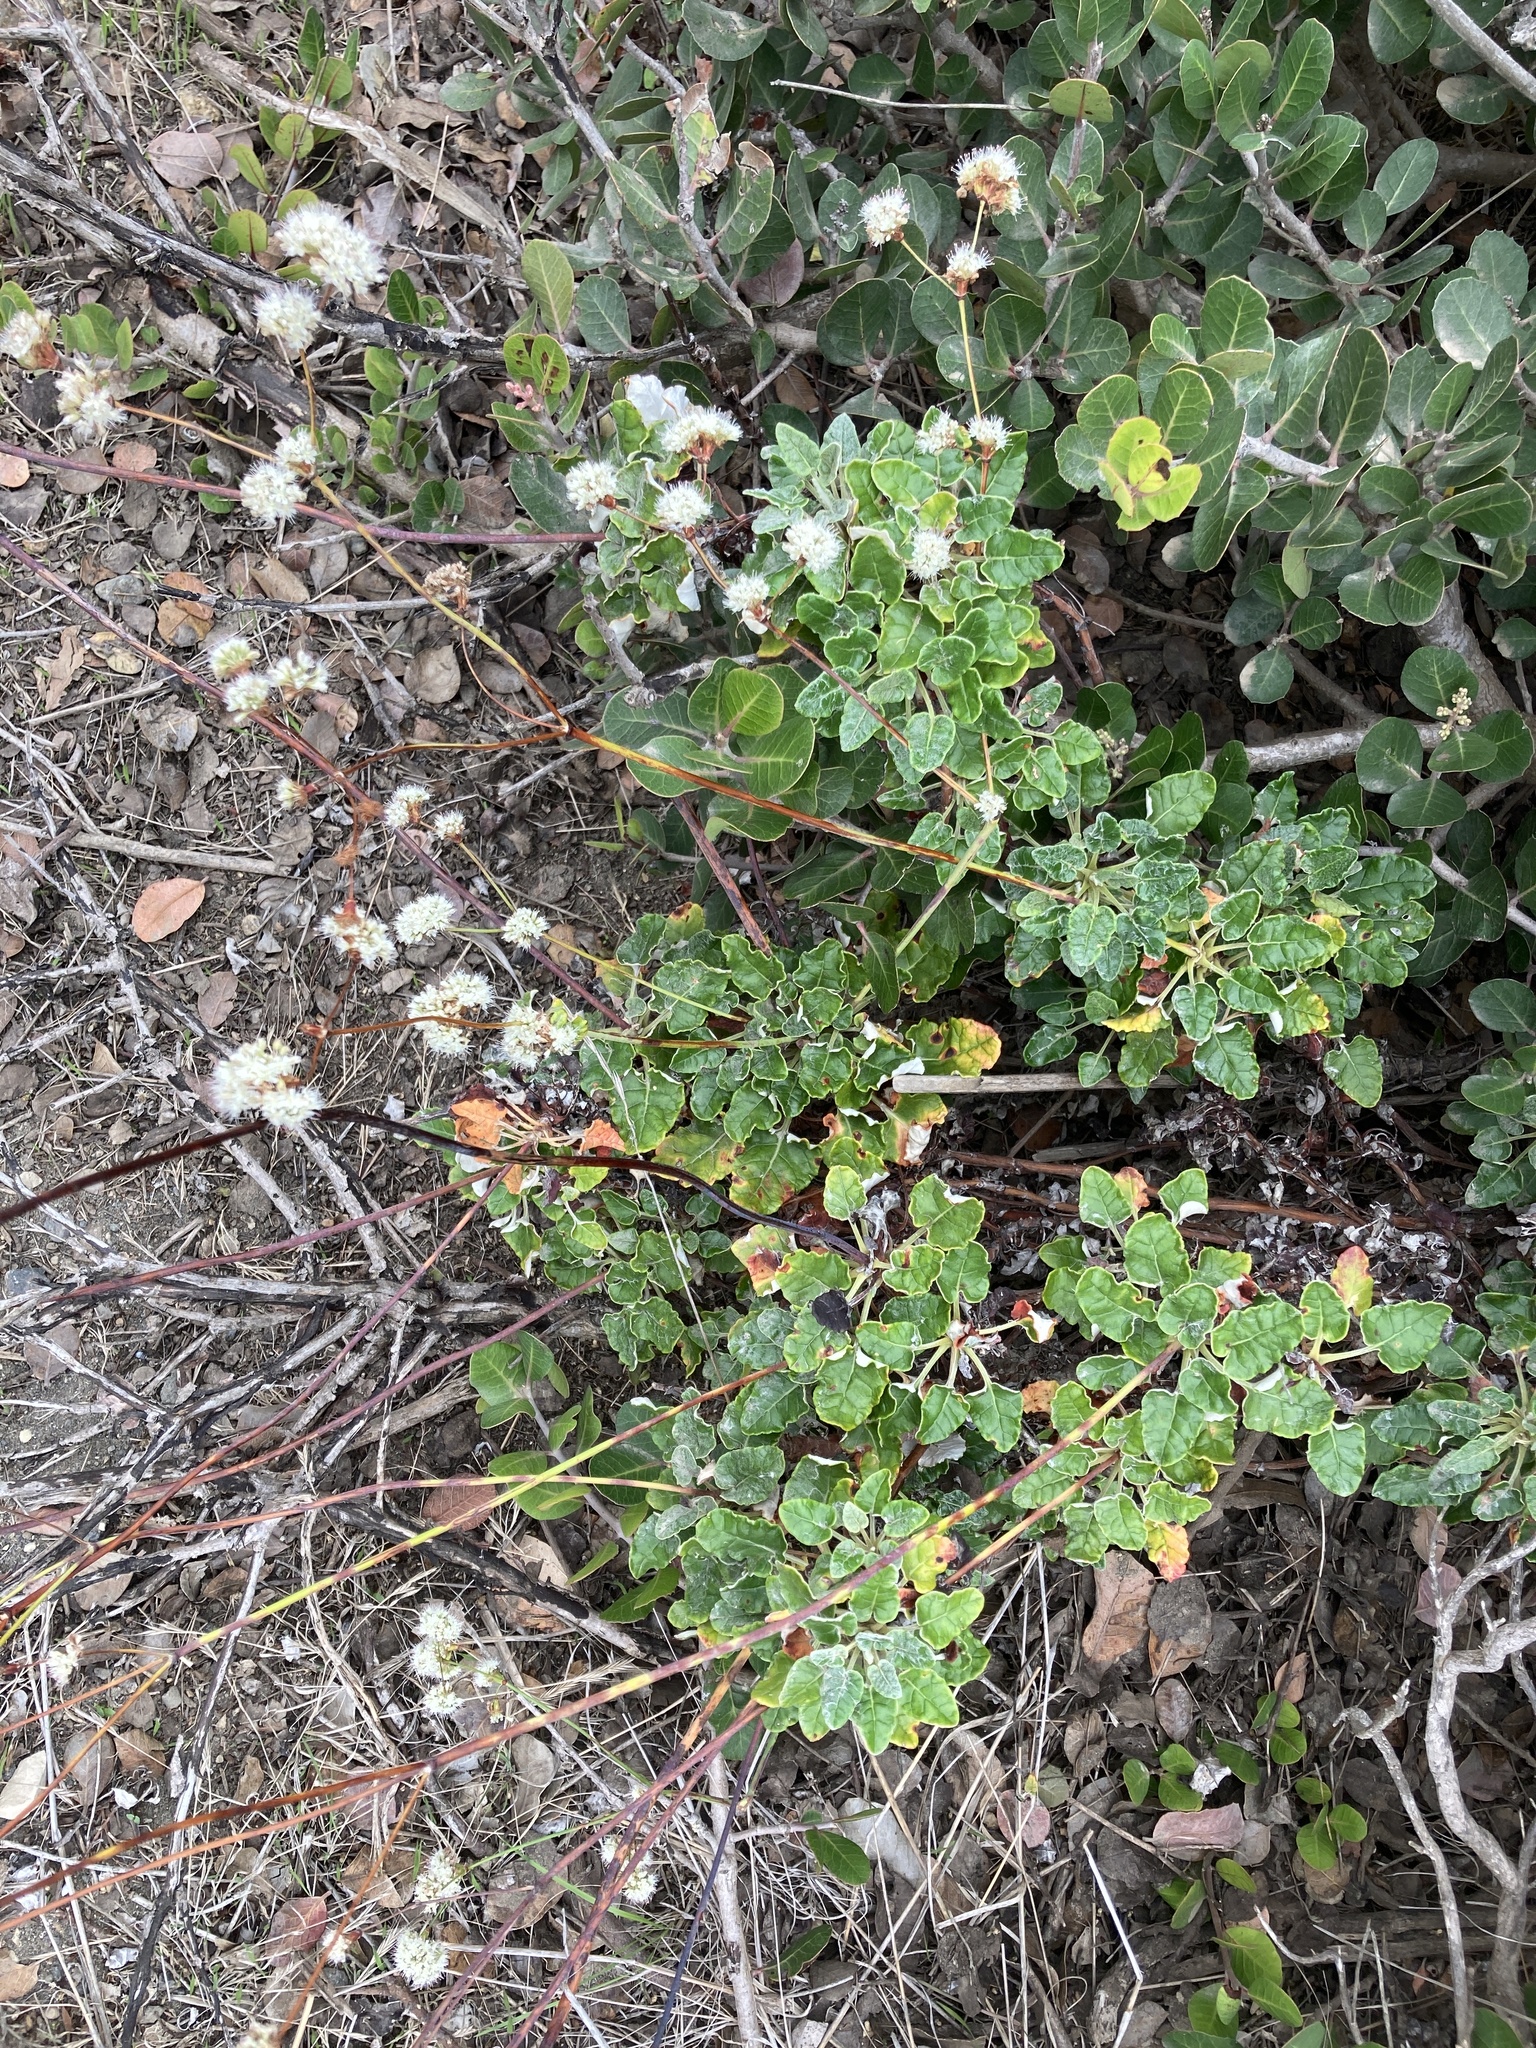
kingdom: Plantae
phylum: Tracheophyta
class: Magnoliopsida
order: Caryophyllales
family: Polygonaceae
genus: Eriogonum
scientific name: Eriogonum grande
